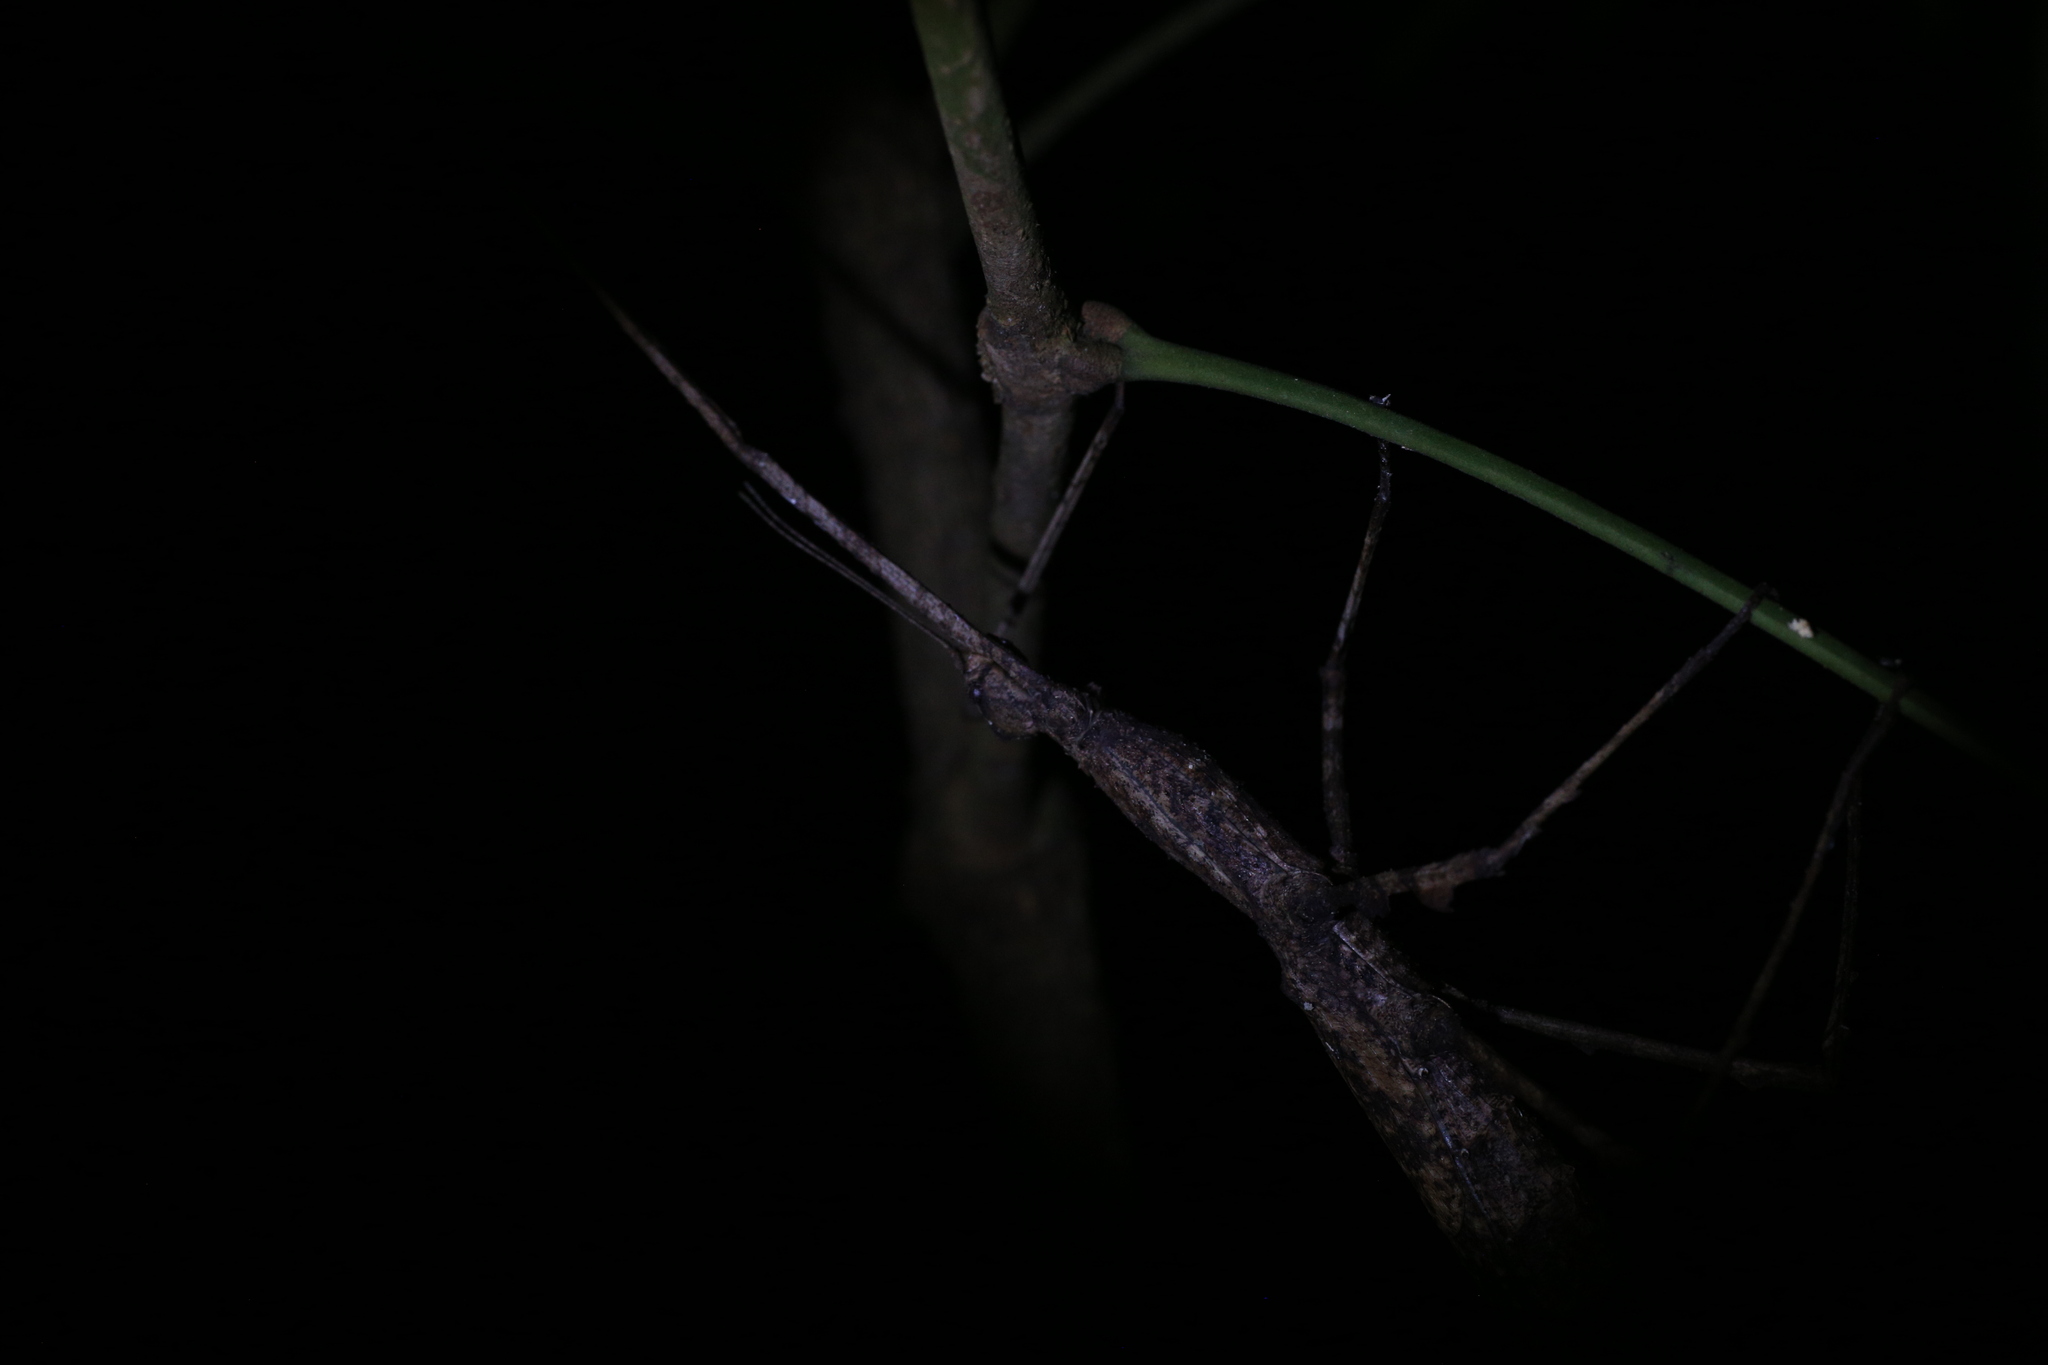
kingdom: Animalia
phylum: Arthropoda
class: Insecta
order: Phasmida
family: Phasmatidae
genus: Onchestus
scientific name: Onchestus rentzi
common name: Rentz's stick-insect
